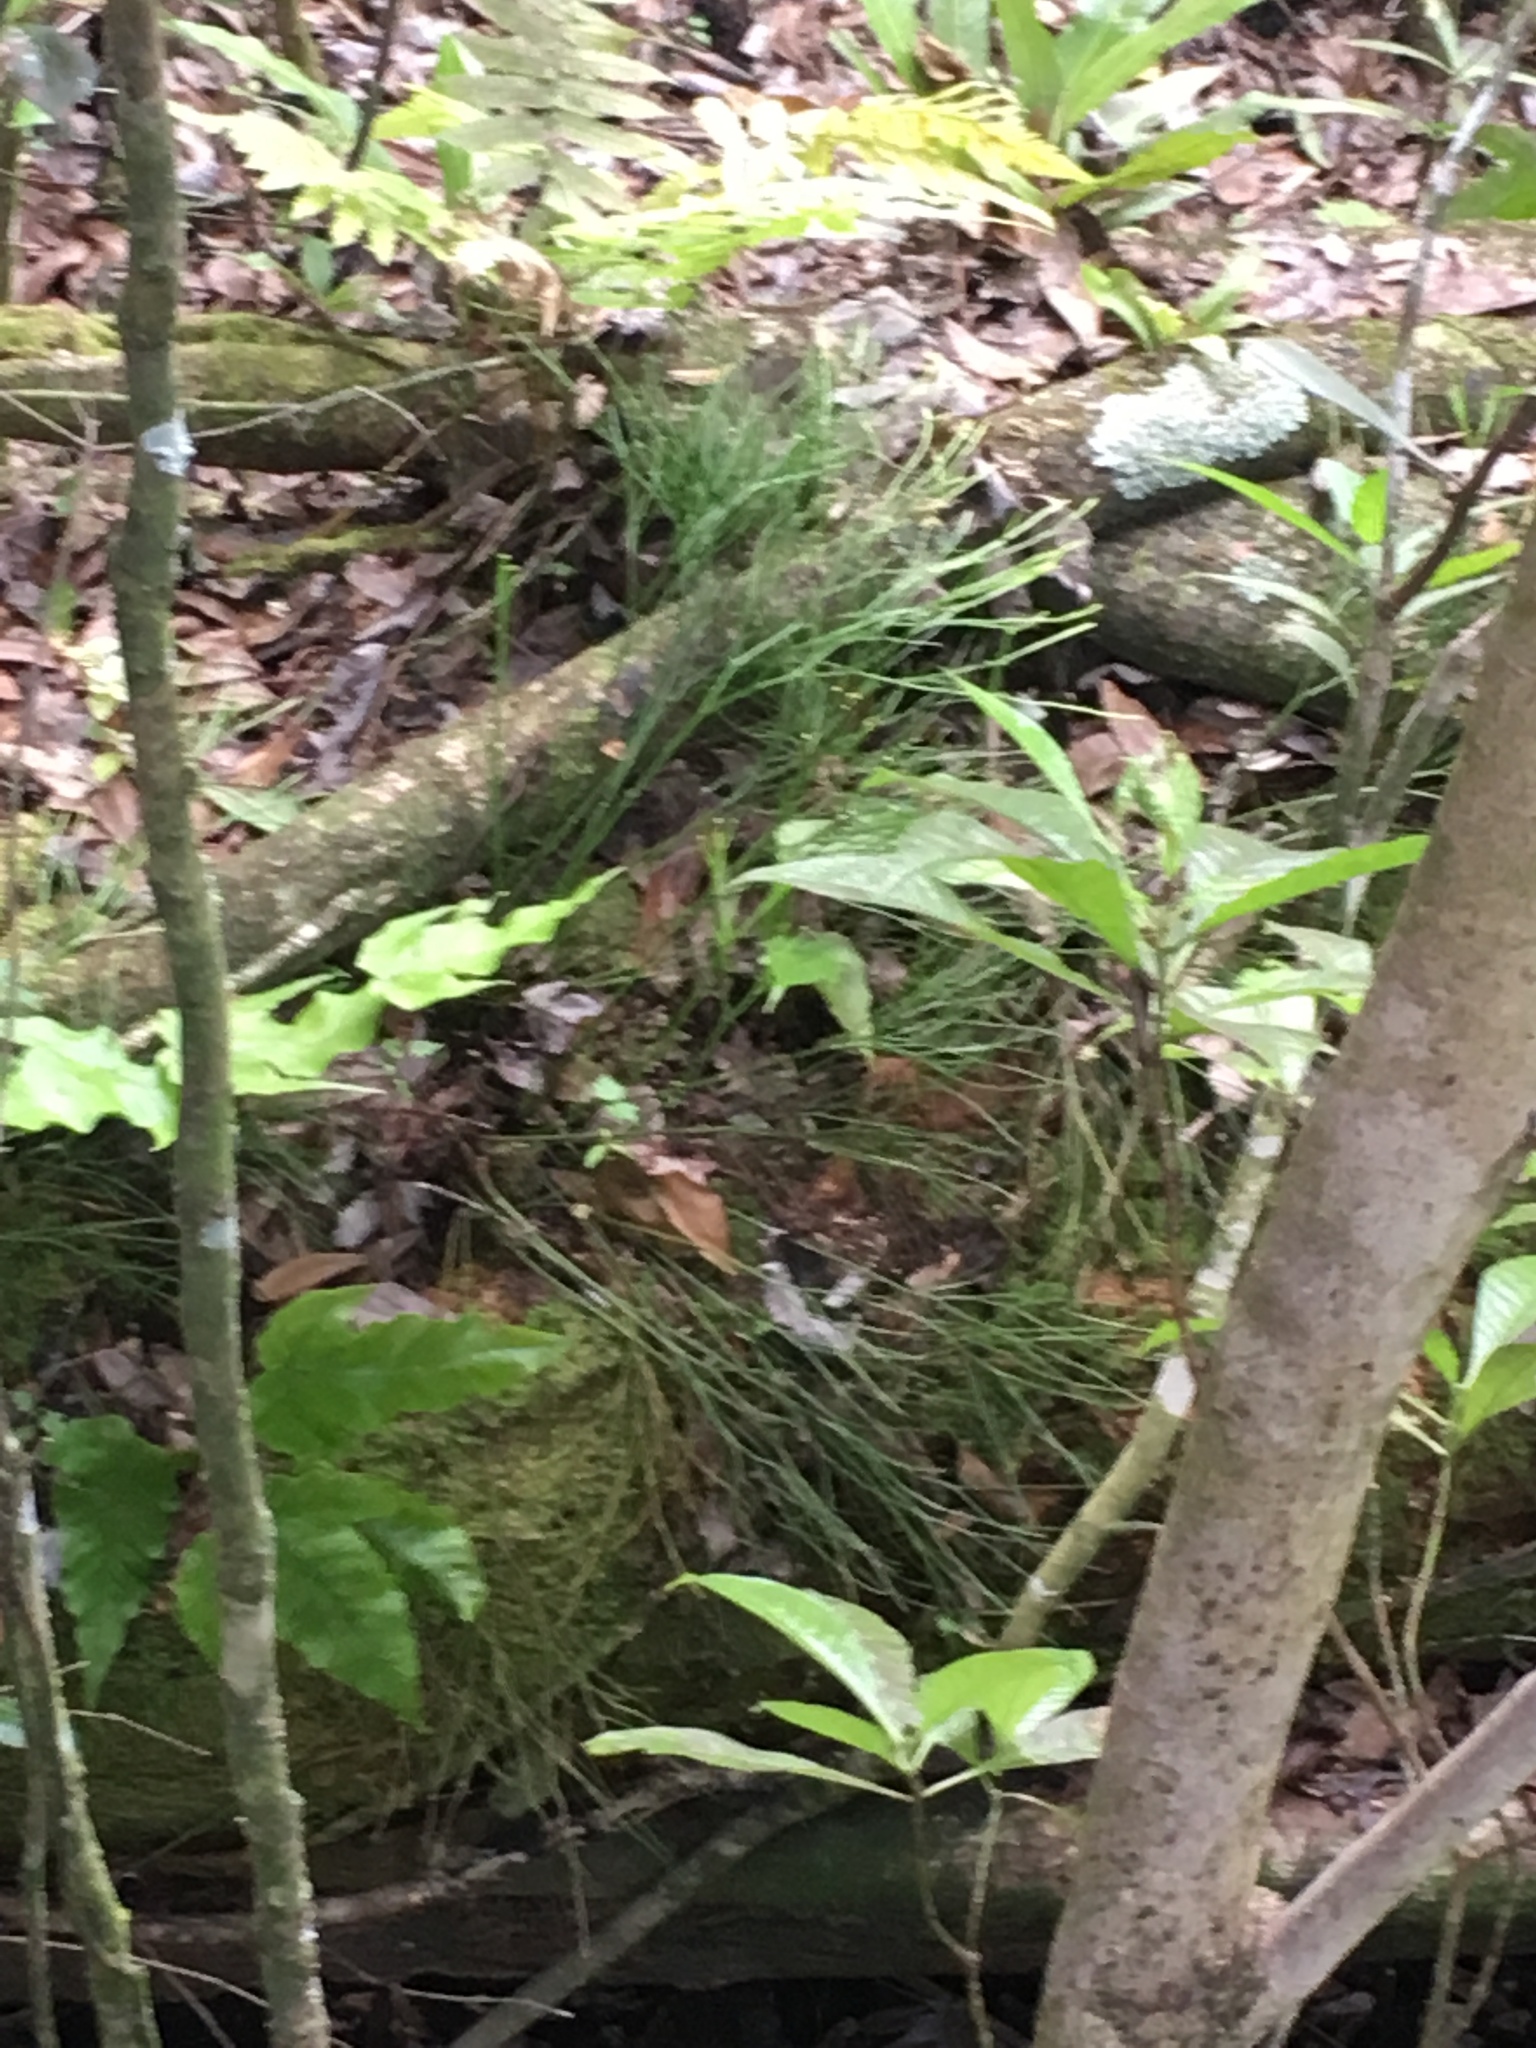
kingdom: Plantae
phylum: Tracheophyta
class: Polypodiopsida
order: Psilotales
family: Psilotaceae
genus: Psilotum
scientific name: Psilotum nudum
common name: Skeleton fork fern
